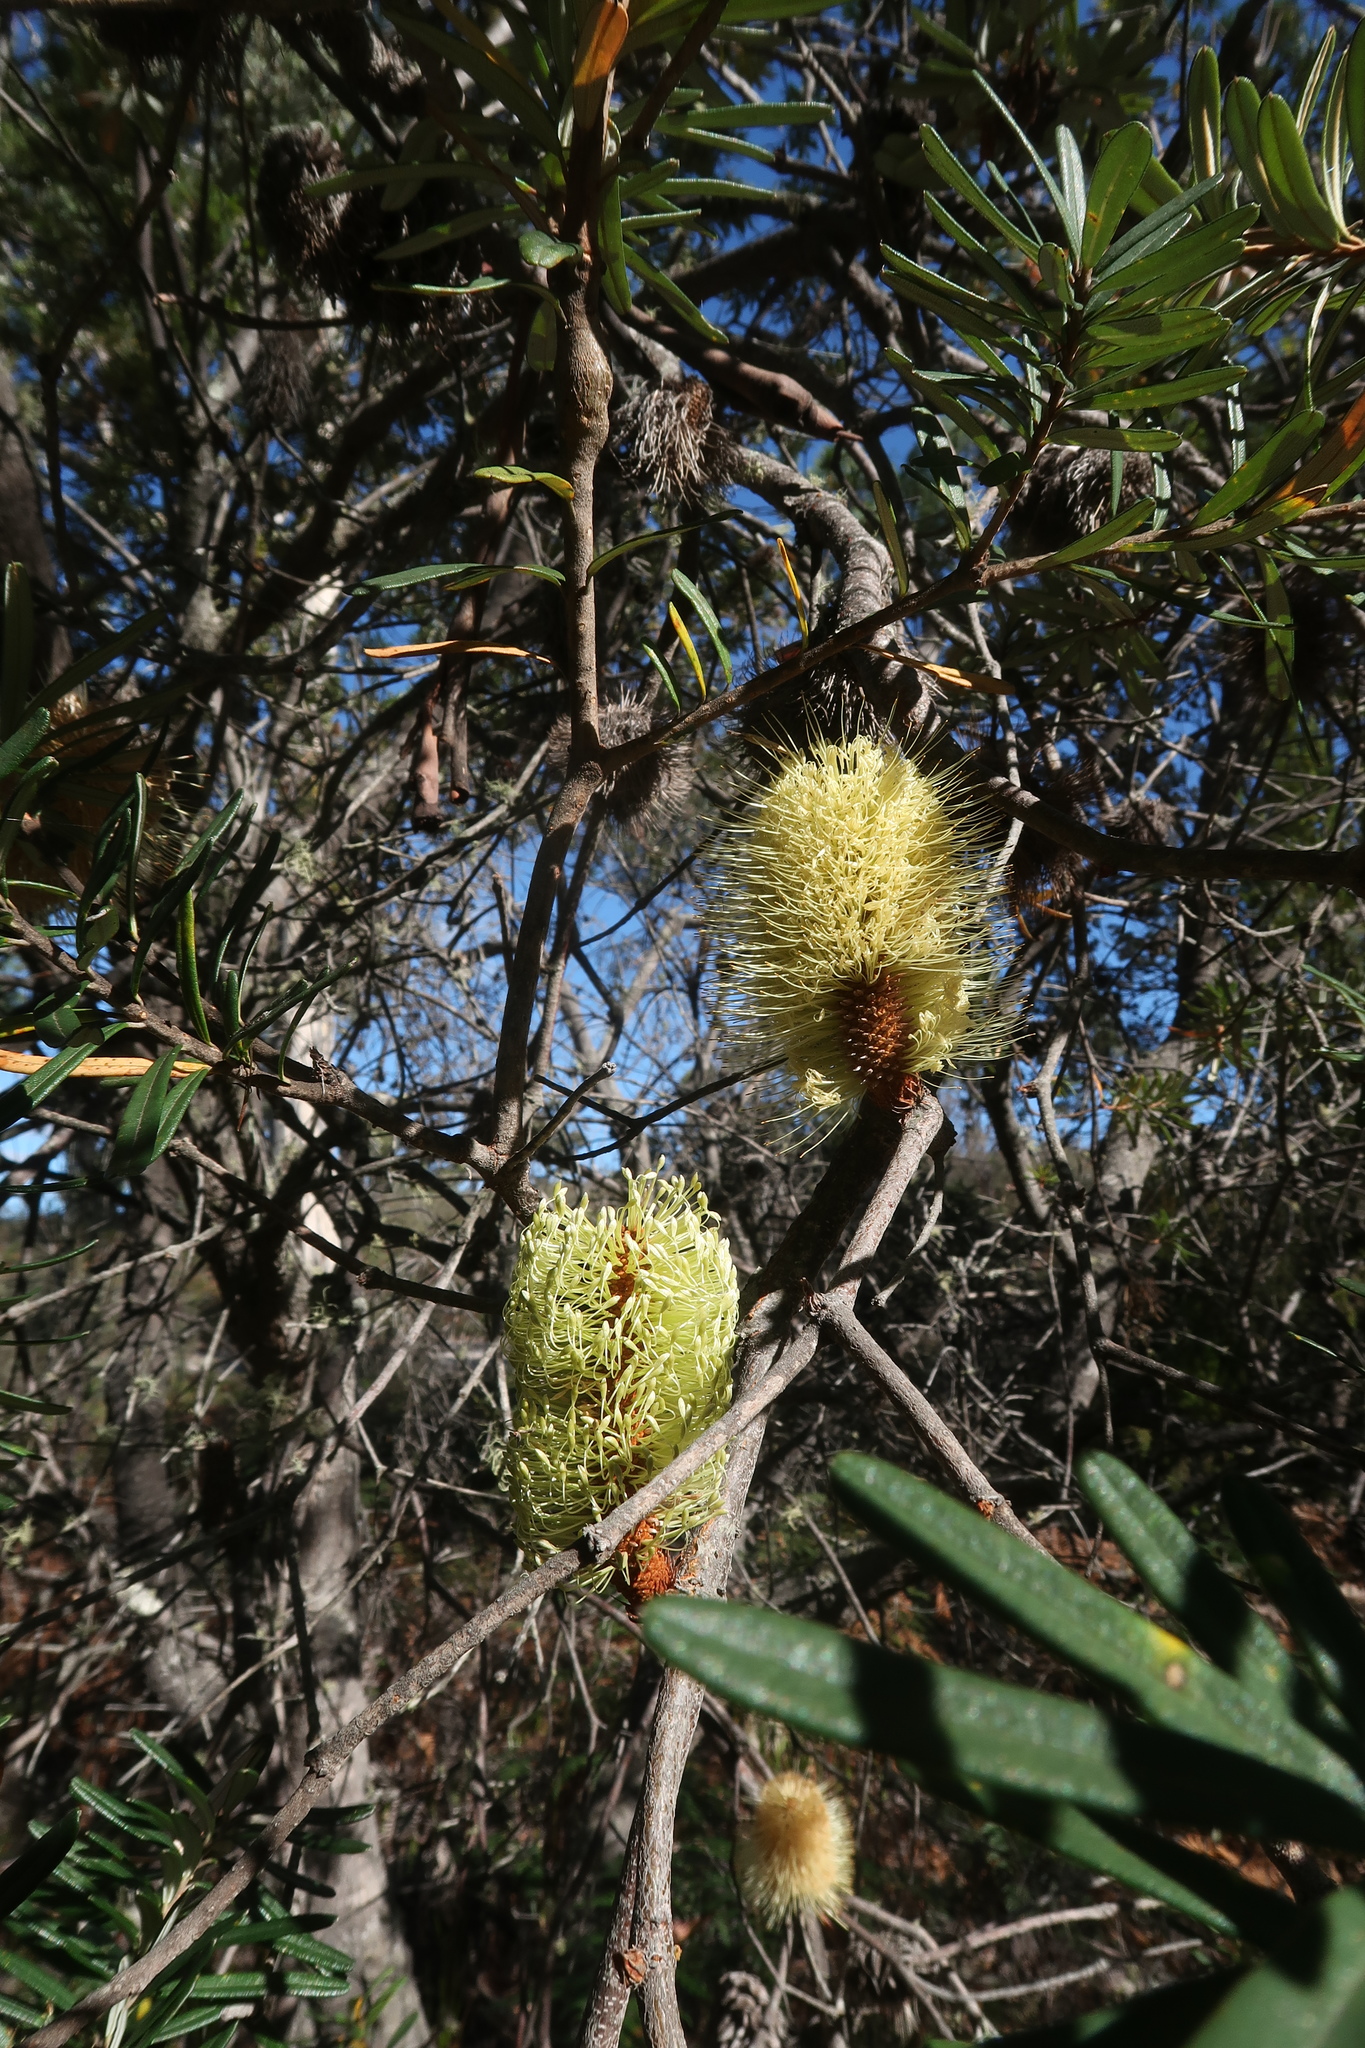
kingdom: Plantae
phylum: Tracheophyta
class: Magnoliopsida
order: Proteales
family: Proteaceae
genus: Banksia
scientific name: Banksia marginata
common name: Silver banksia
